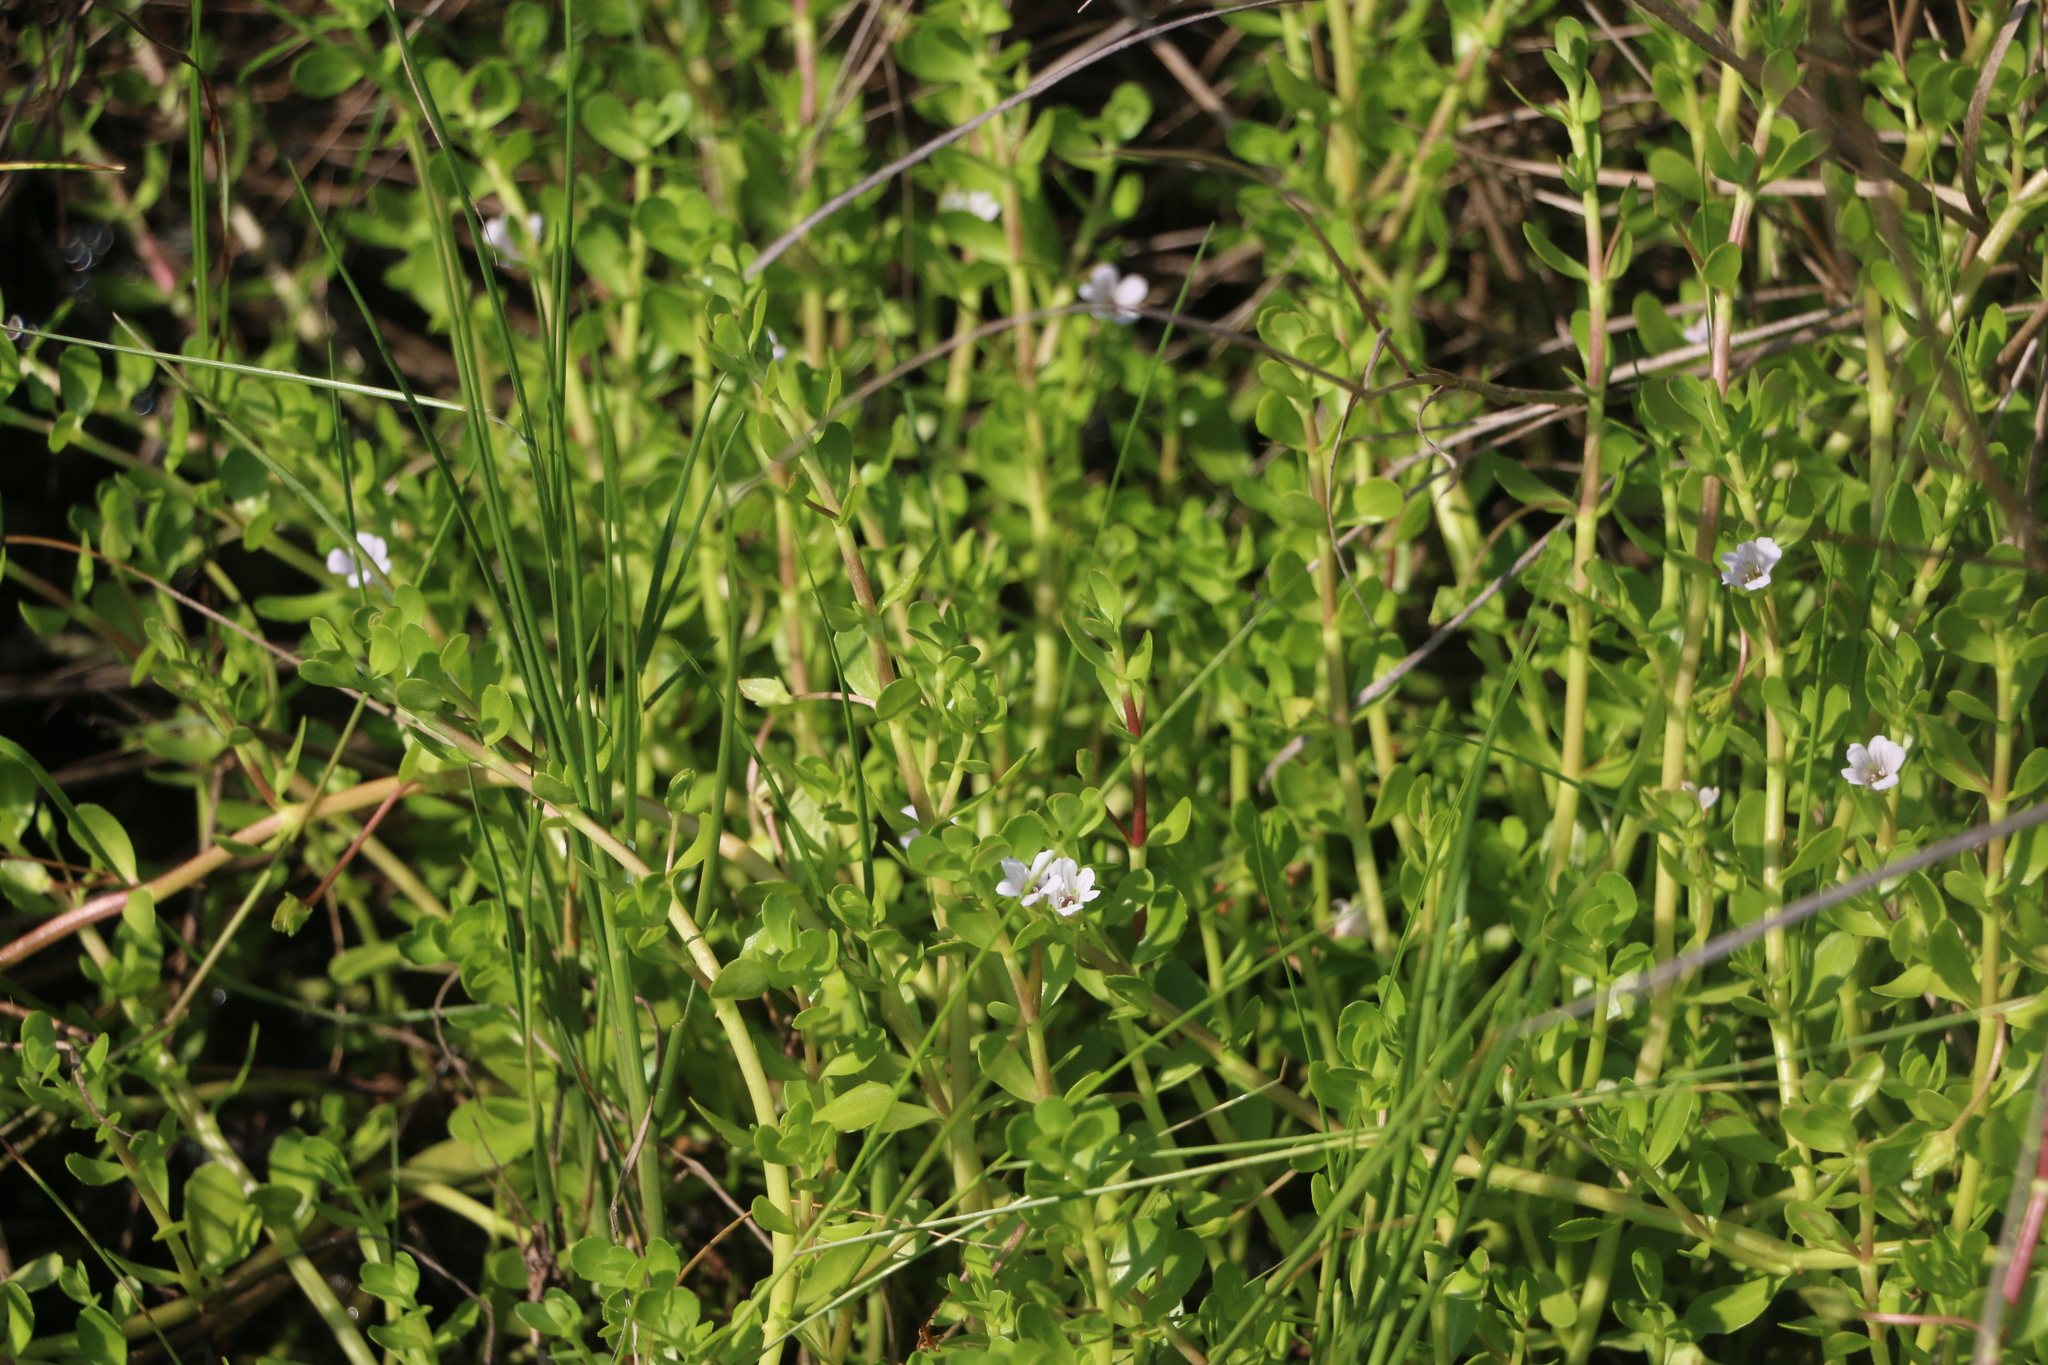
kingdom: Plantae
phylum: Tracheophyta
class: Magnoliopsida
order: Lamiales
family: Plantaginaceae
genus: Bacopa
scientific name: Bacopa monnieri
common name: Indian-pennywort
